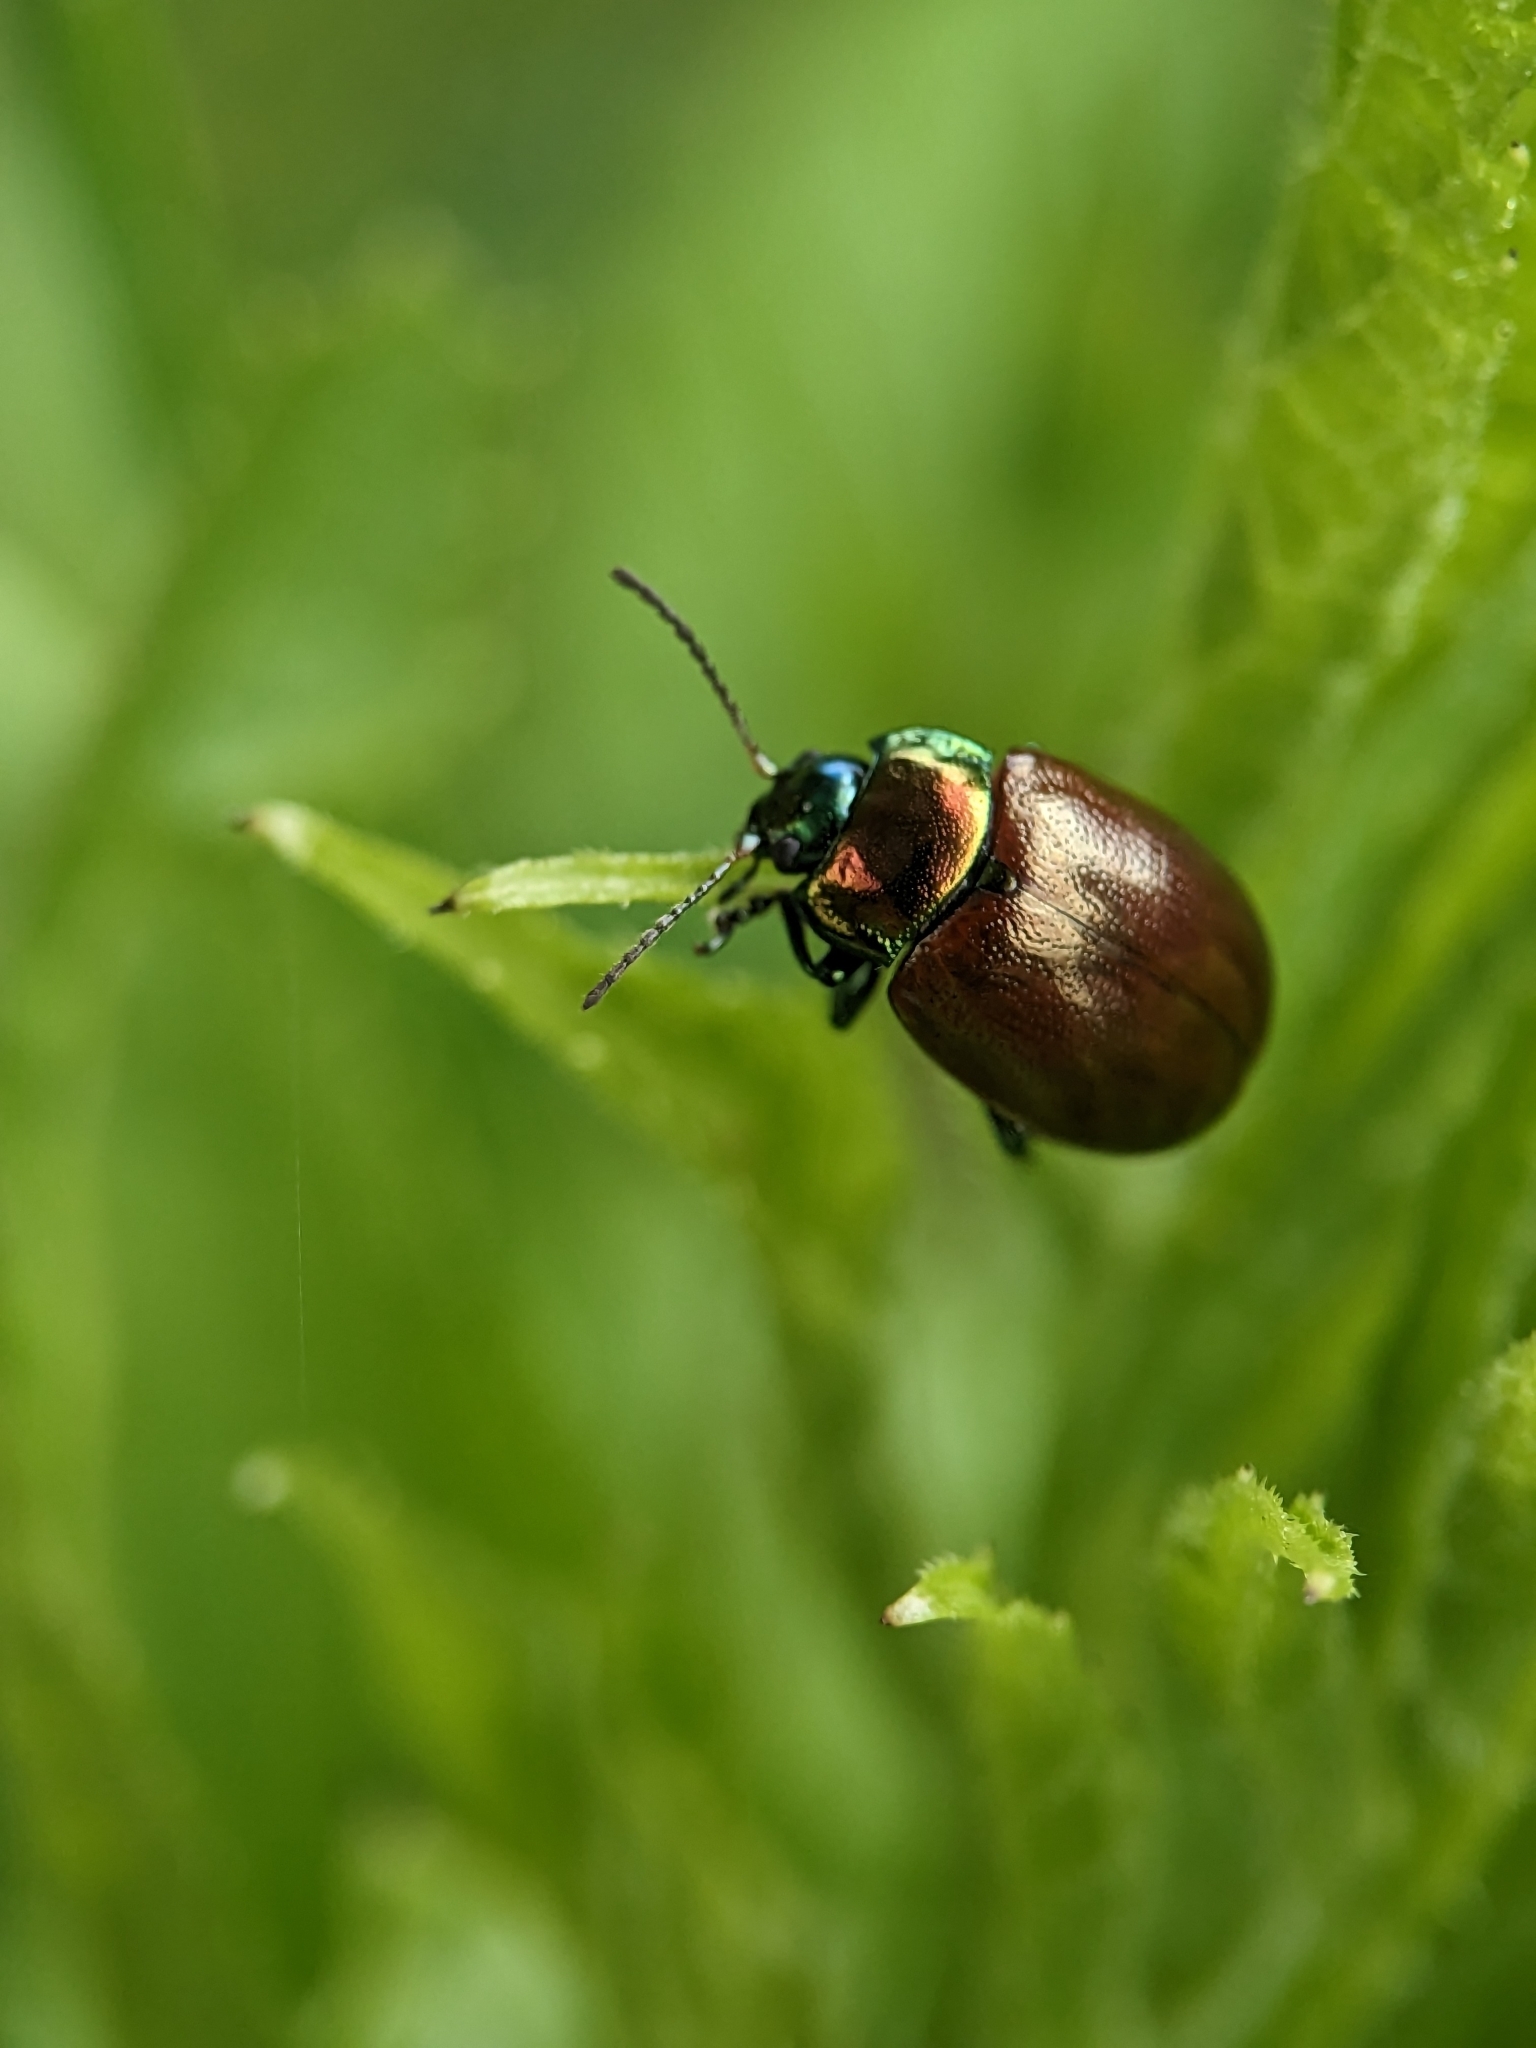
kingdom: Animalia
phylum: Arthropoda
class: Insecta
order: Coleoptera
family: Chrysomelidae
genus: Chrysomela
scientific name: Chrysomela polita
